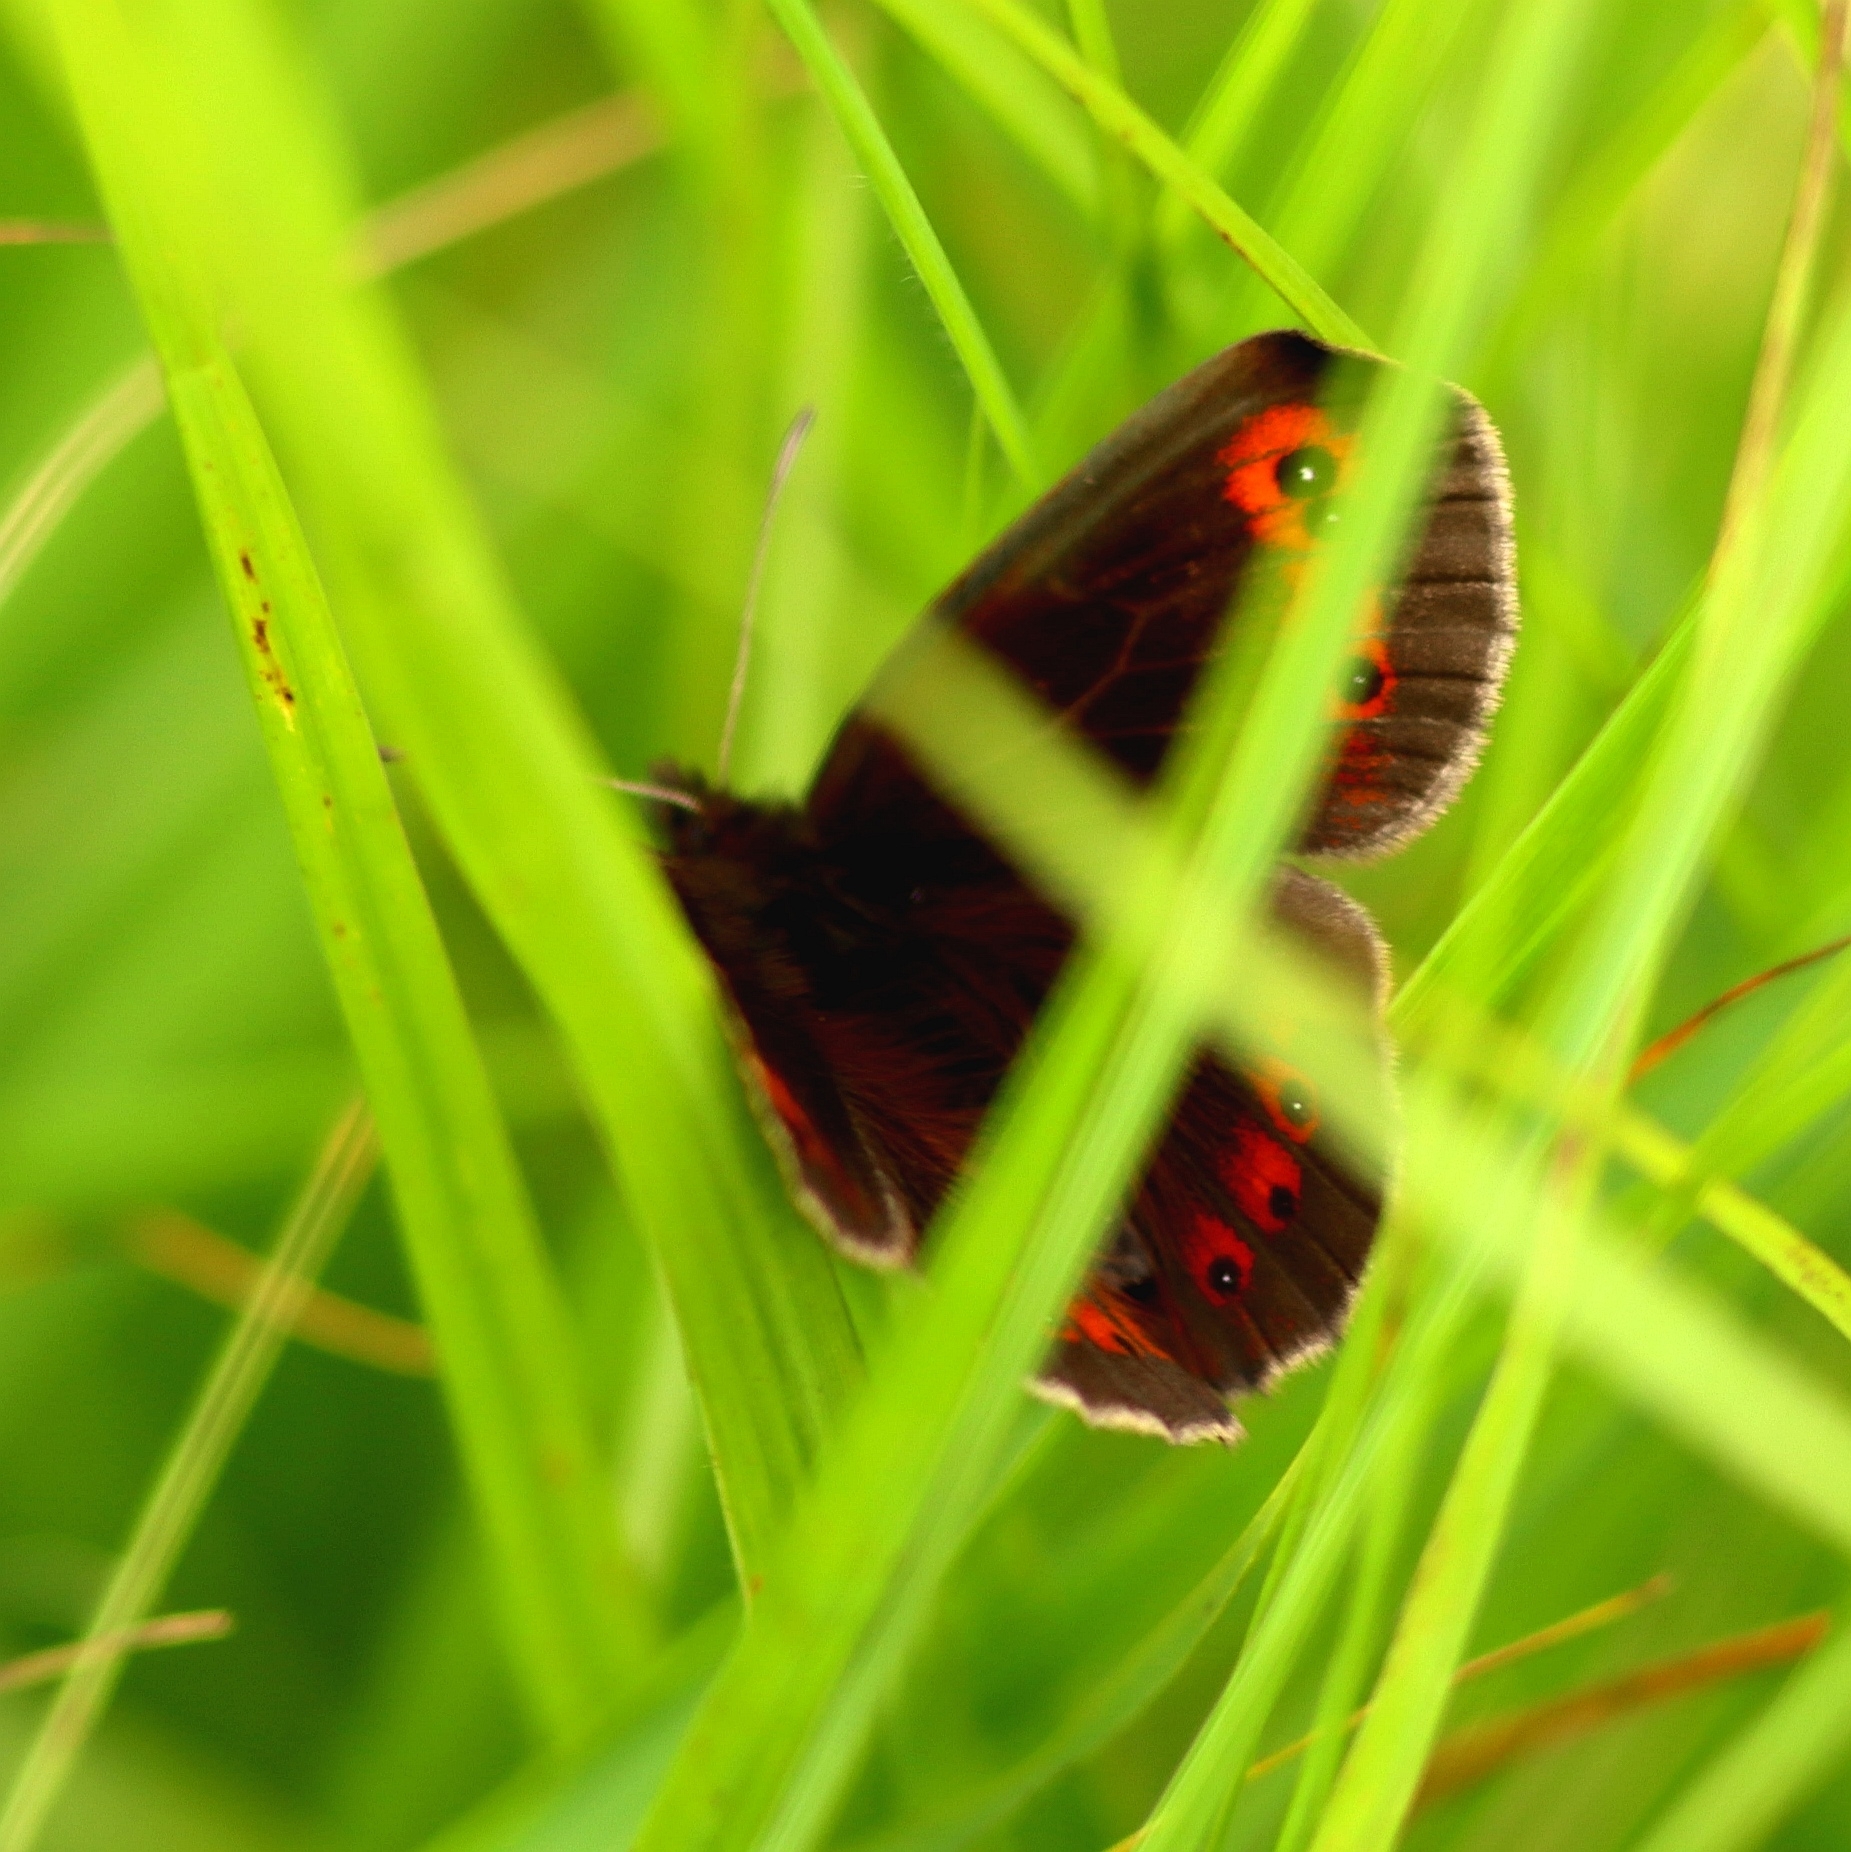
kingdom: Animalia
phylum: Arthropoda
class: Insecta
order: Lepidoptera
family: Nymphalidae
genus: Erebia
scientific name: Erebia aethiops
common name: Scotch argus
